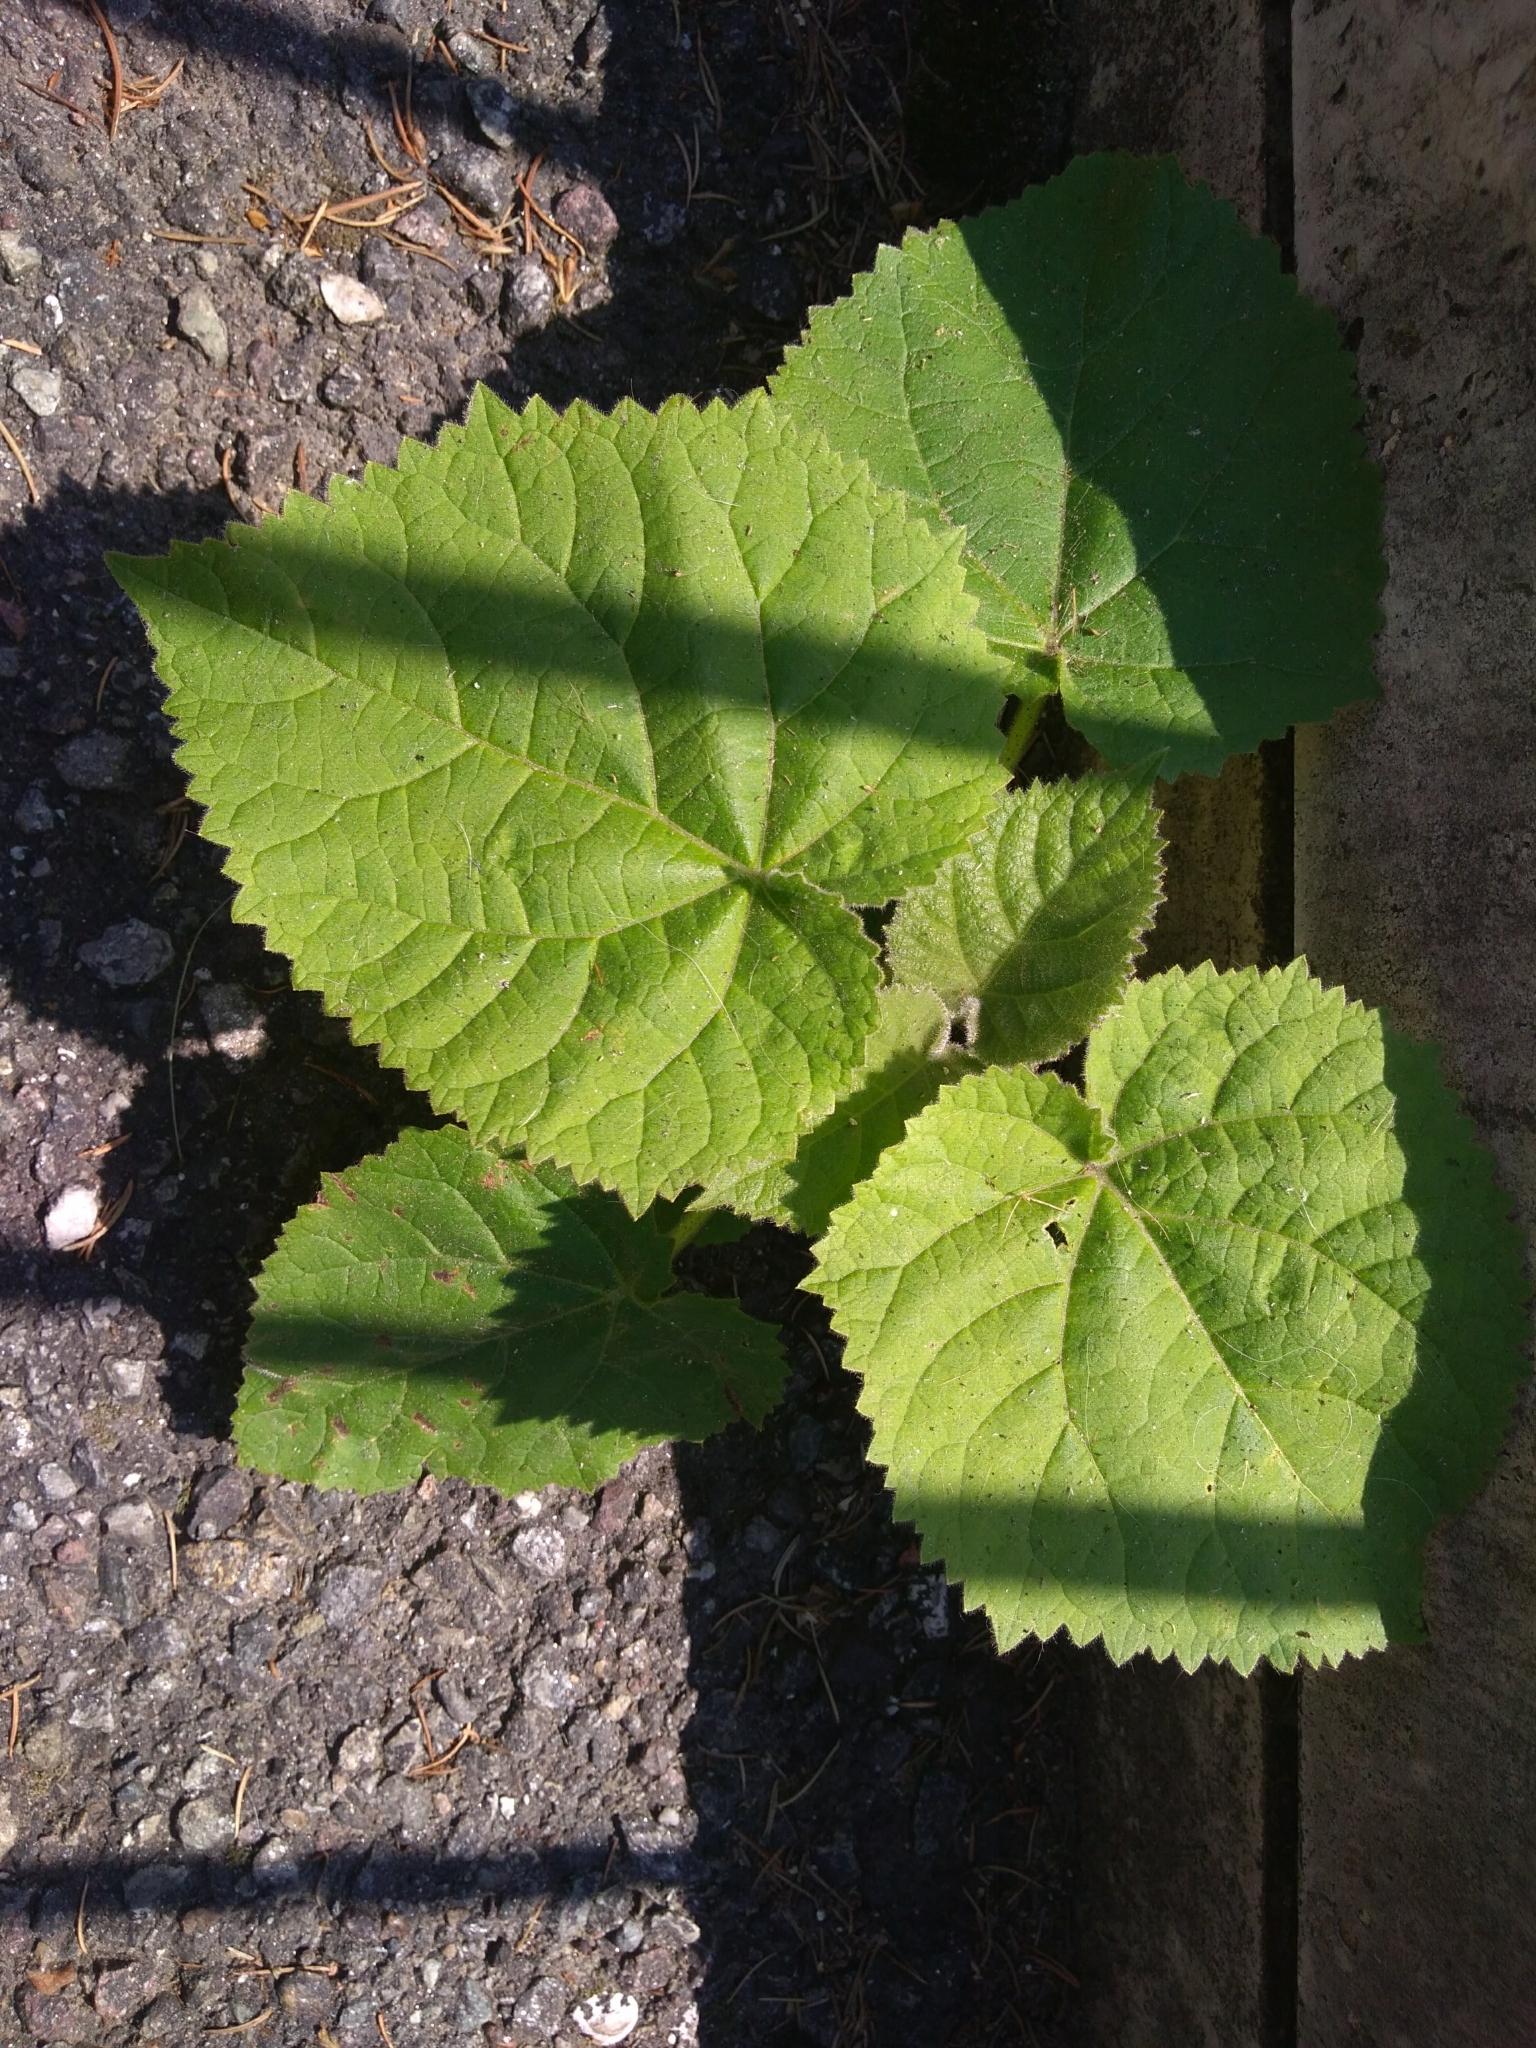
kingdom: Plantae
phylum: Tracheophyta
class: Magnoliopsida
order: Lamiales
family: Paulowniaceae
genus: Paulownia
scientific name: Paulownia tomentosa
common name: Foxglove-tree
